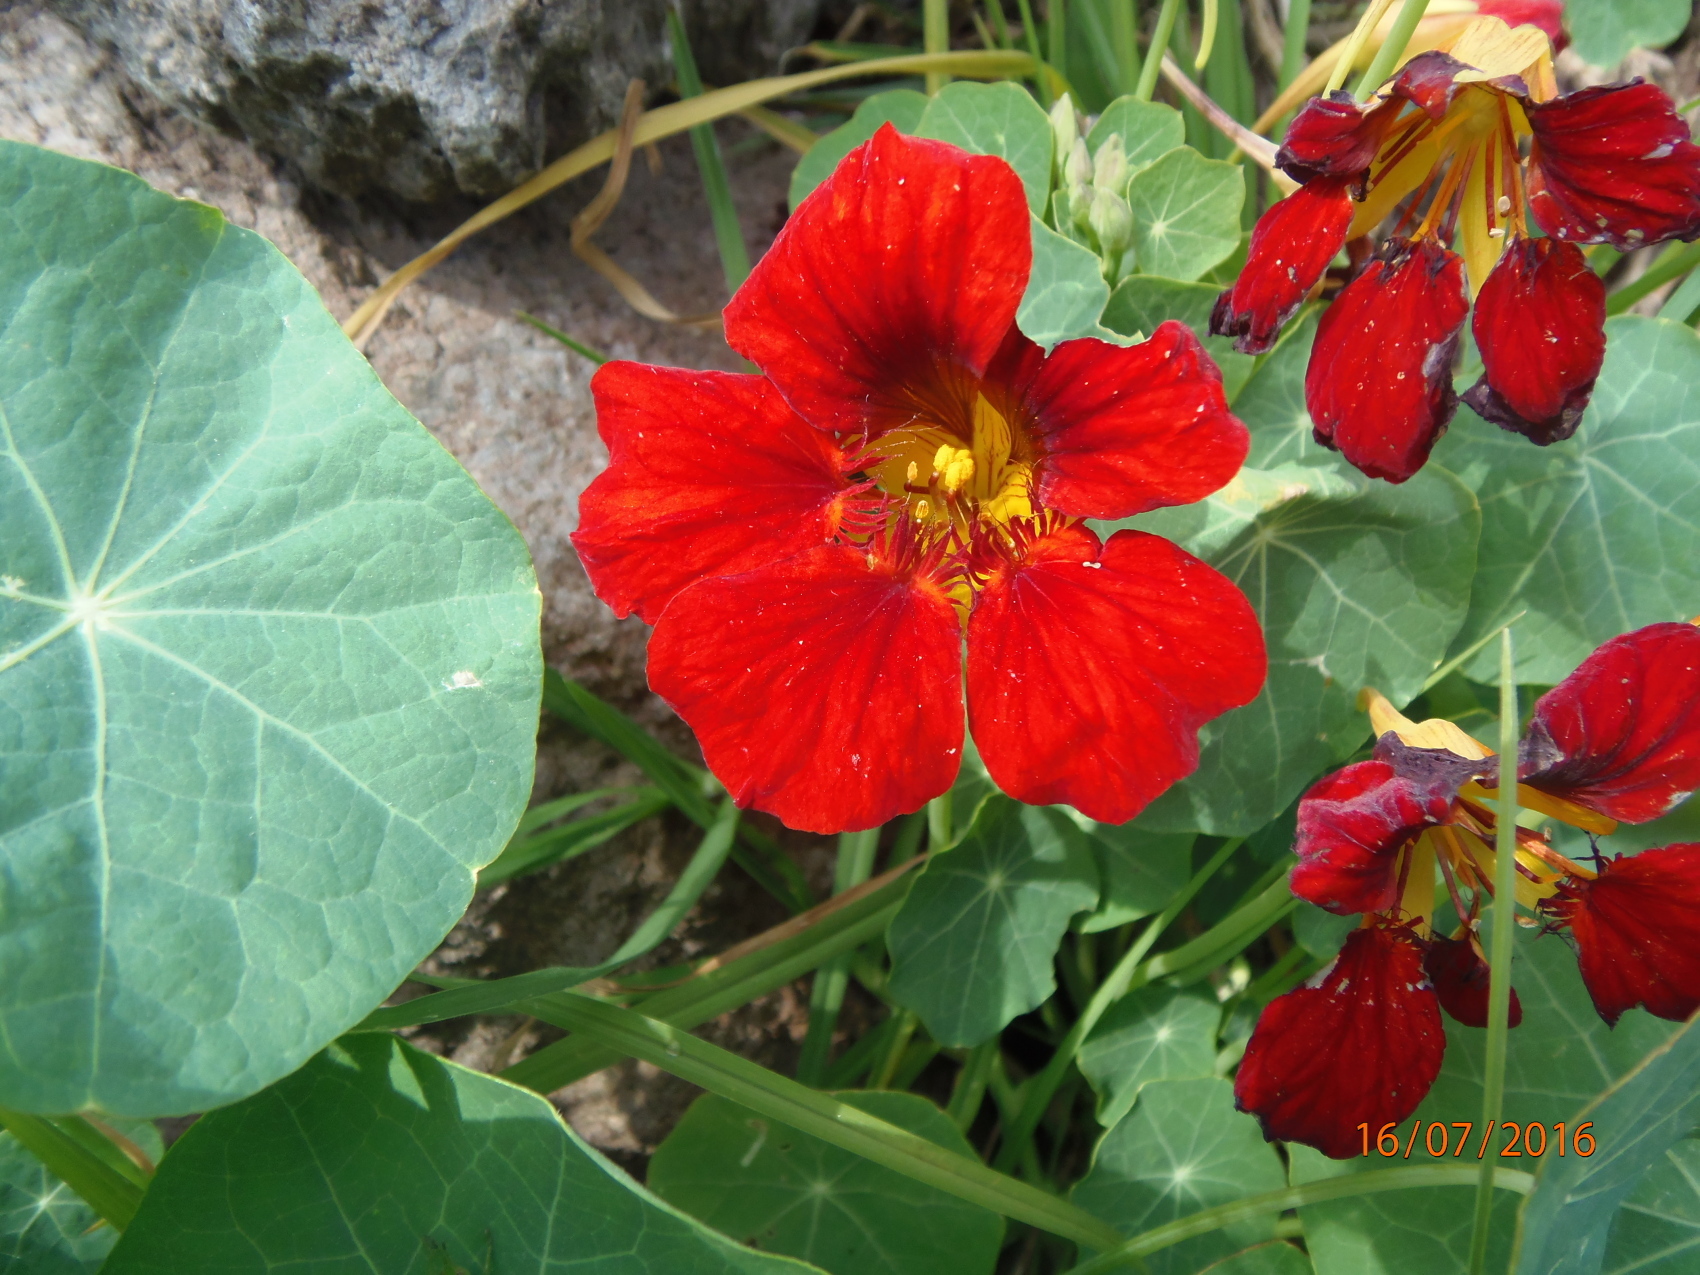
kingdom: Plantae
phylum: Tracheophyta
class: Magnoliopsida
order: Brassicales
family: Tropaeolaceae
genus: Tropaeolum
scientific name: Tropaeolum majus
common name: Nasturtium
